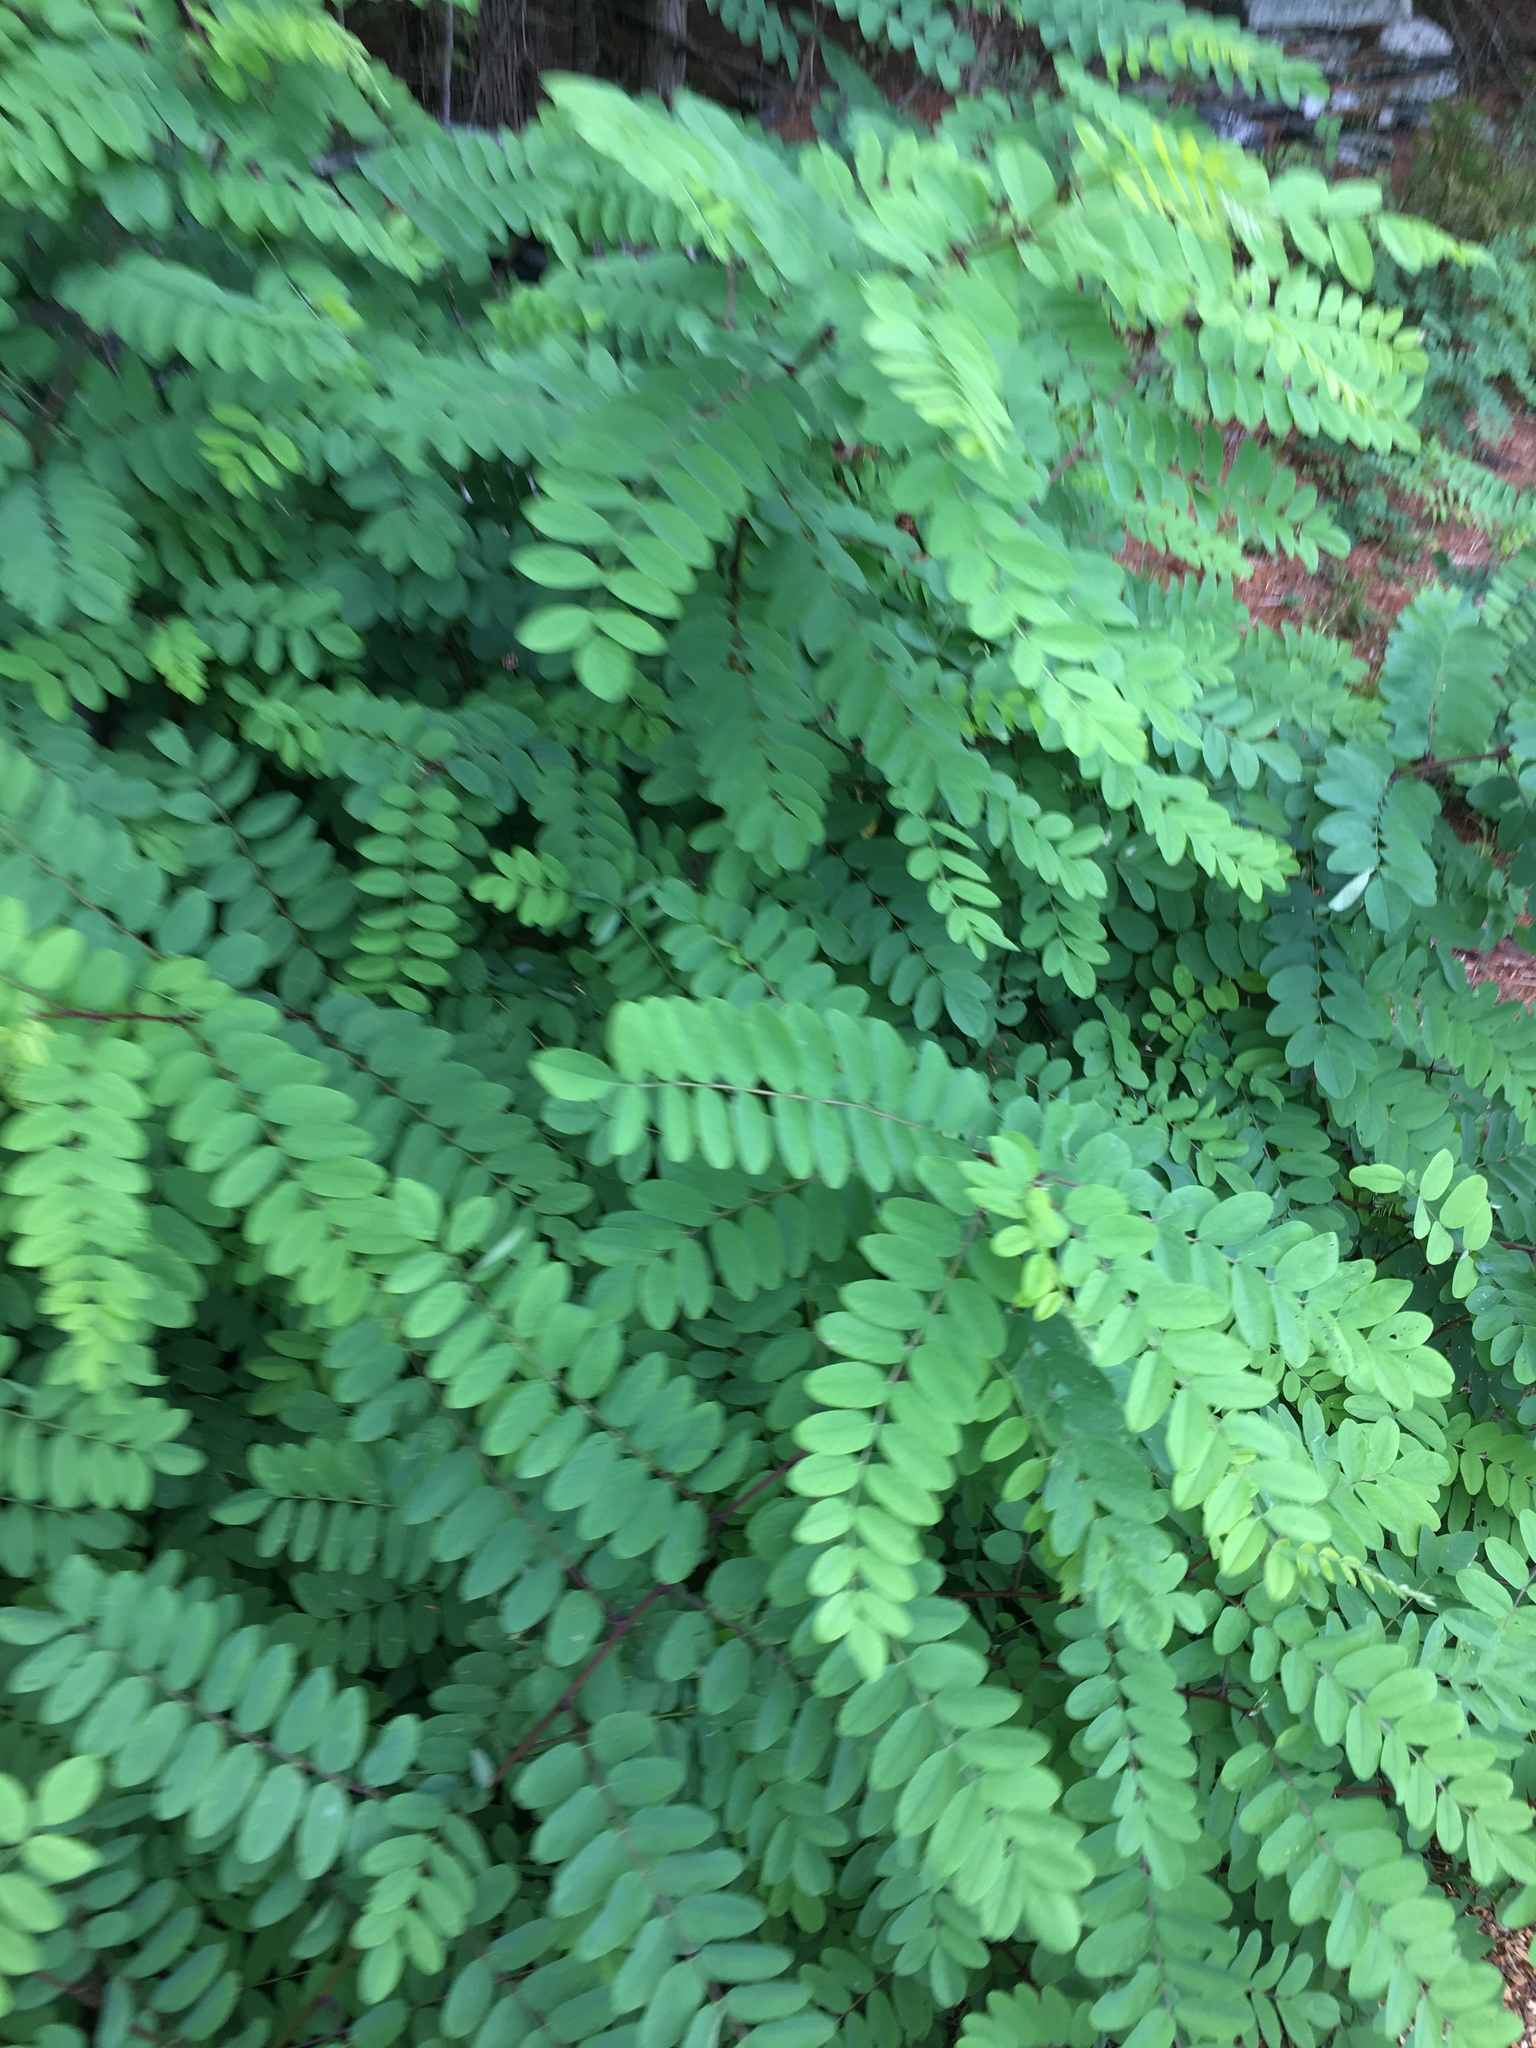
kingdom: Plantae
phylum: Tracheophyta
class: Magnoliopsida
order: Fabales
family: Fabaceae
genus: Robinia
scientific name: Robinia pseudoacacia
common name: Black locust
